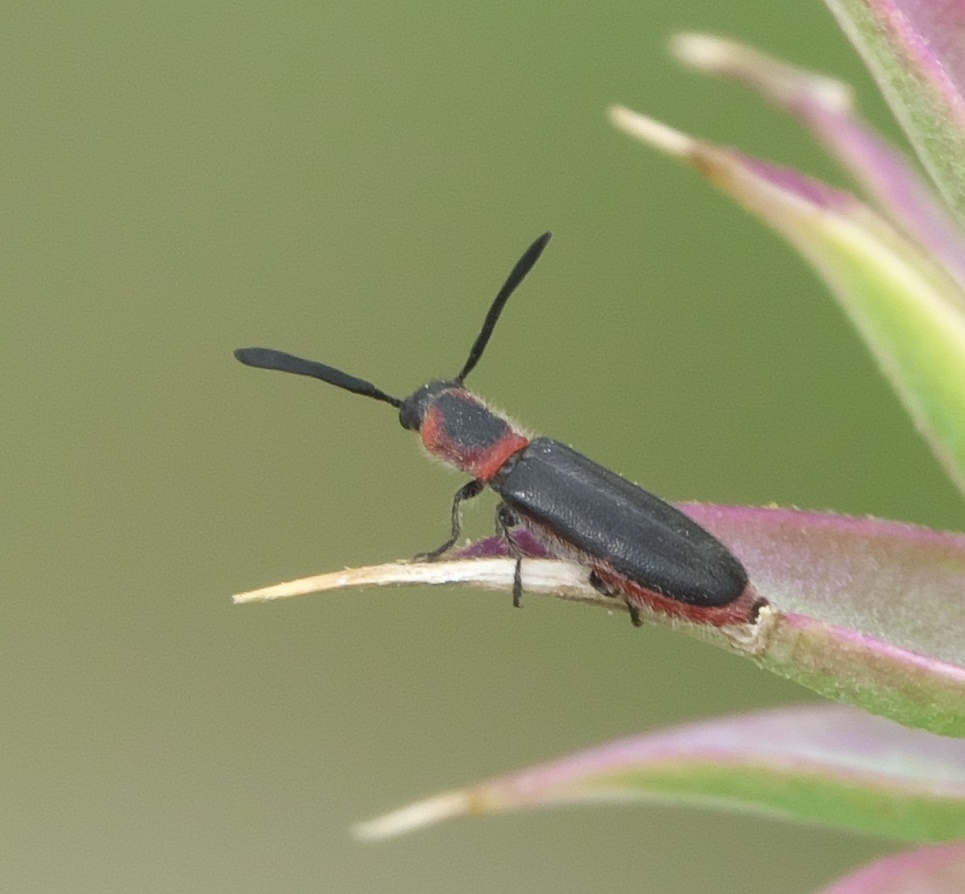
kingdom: Animalia
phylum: Arthropoda
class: Insecta
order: Coleoptera
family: Cleridae
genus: Monophylla
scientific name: Monophylla terminata
